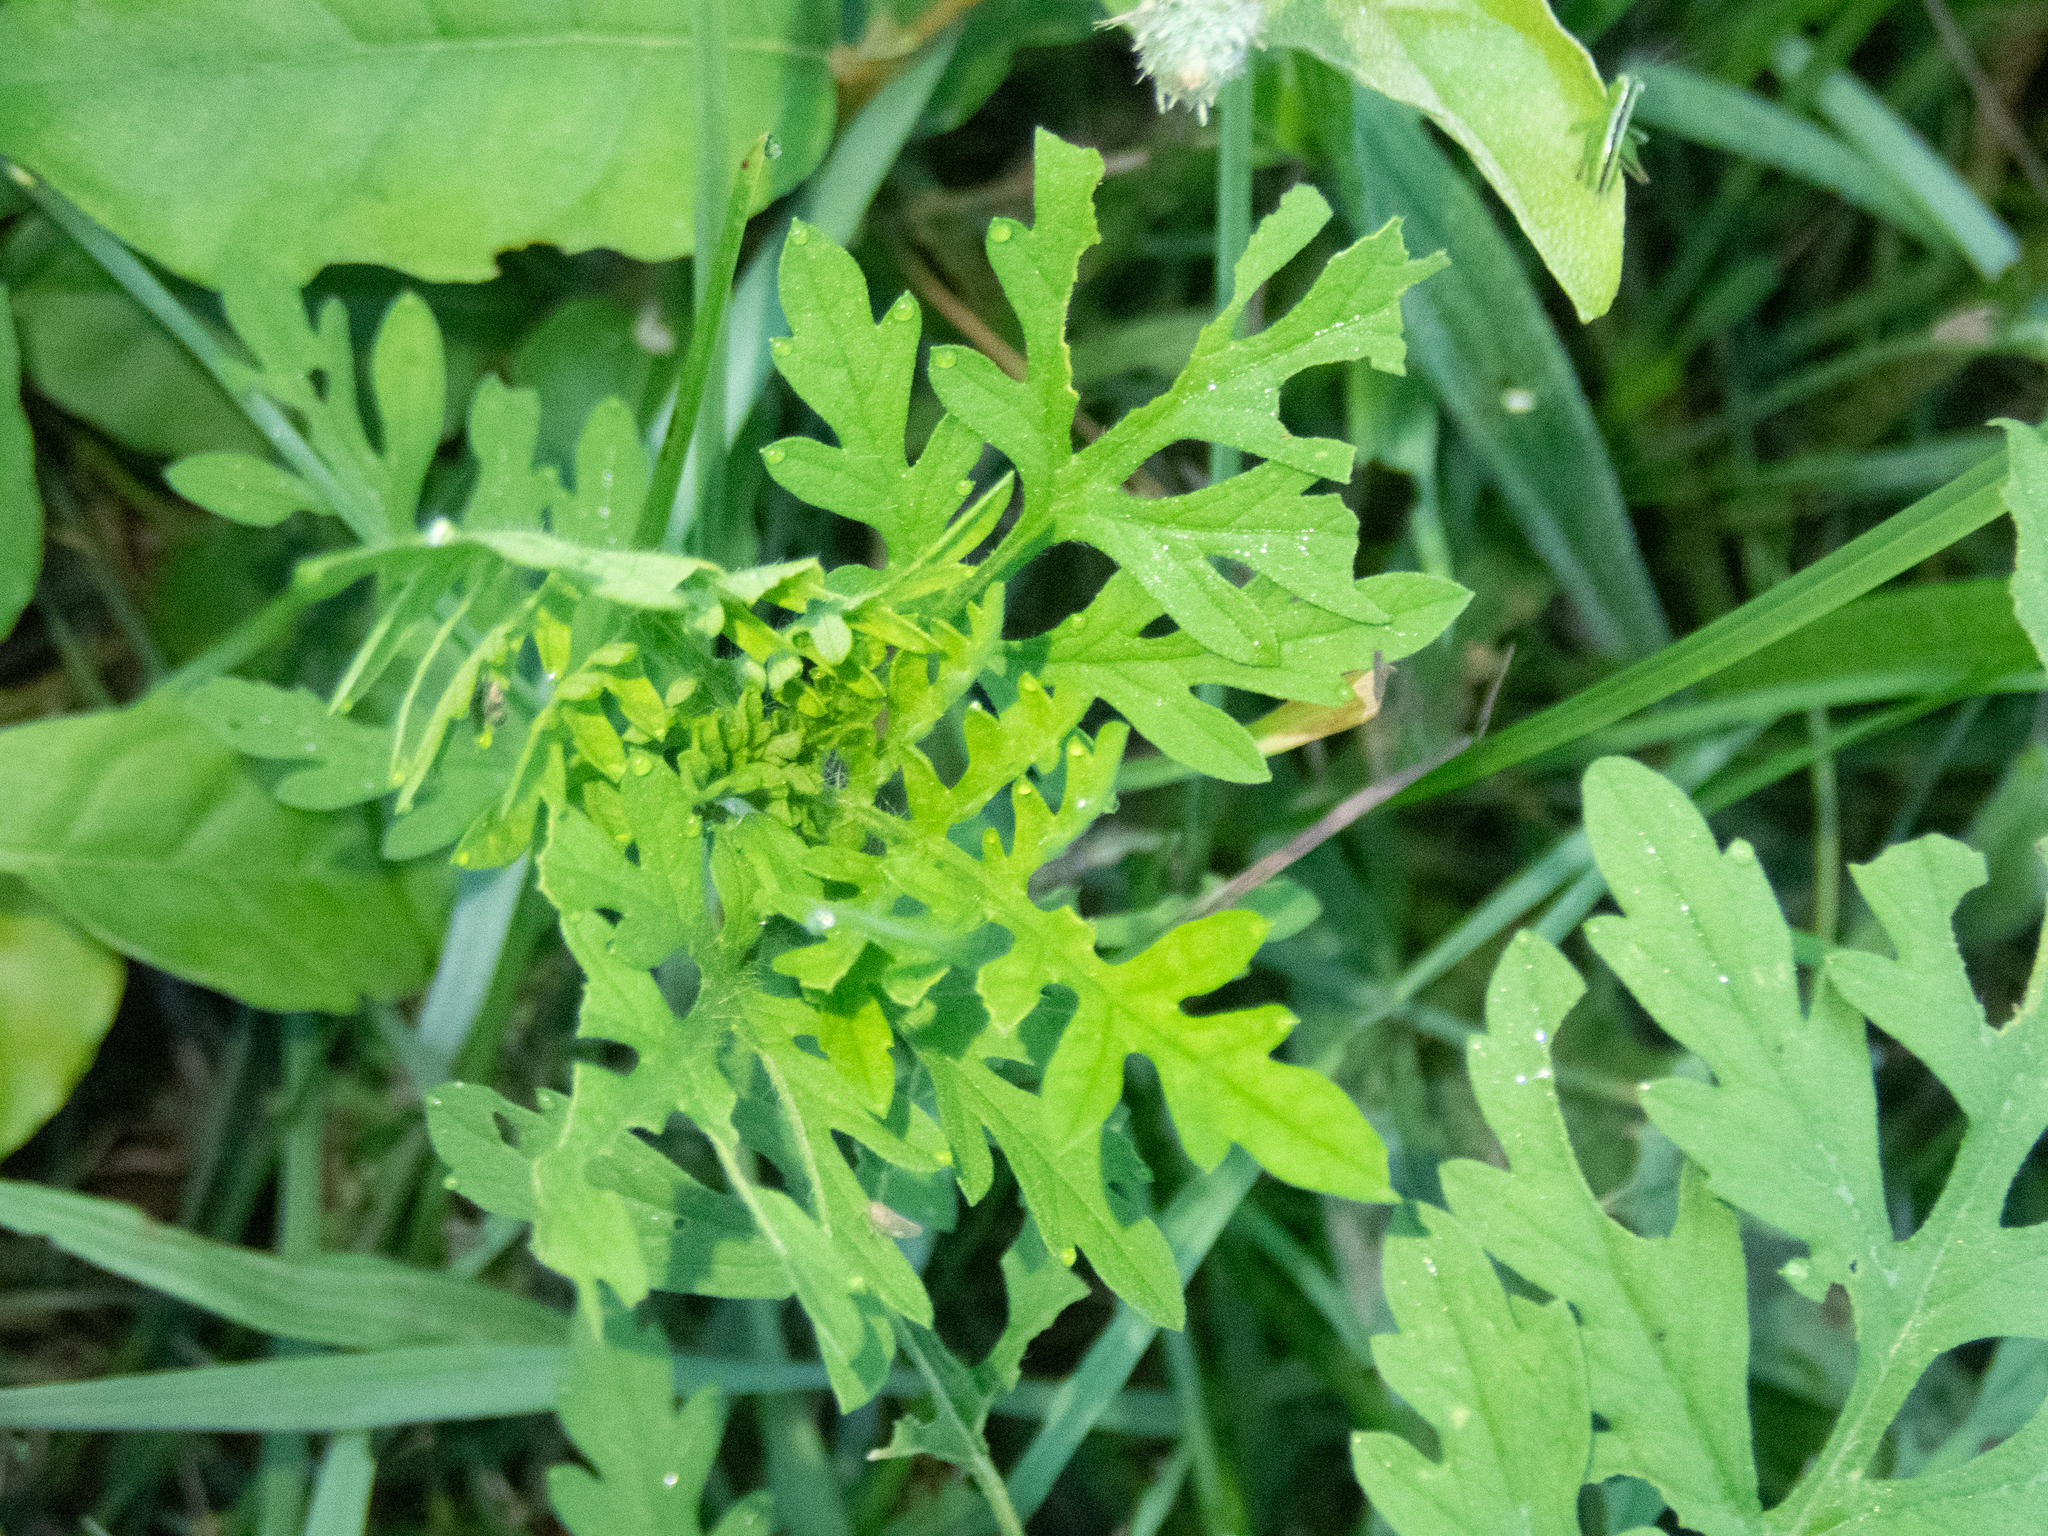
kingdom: Plantae
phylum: Tracheophyta
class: Magnoliopsida
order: Asterales
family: Asteraceae
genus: Ambrosia
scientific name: Ambrosia artemisiifolia
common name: Annual ragweed
